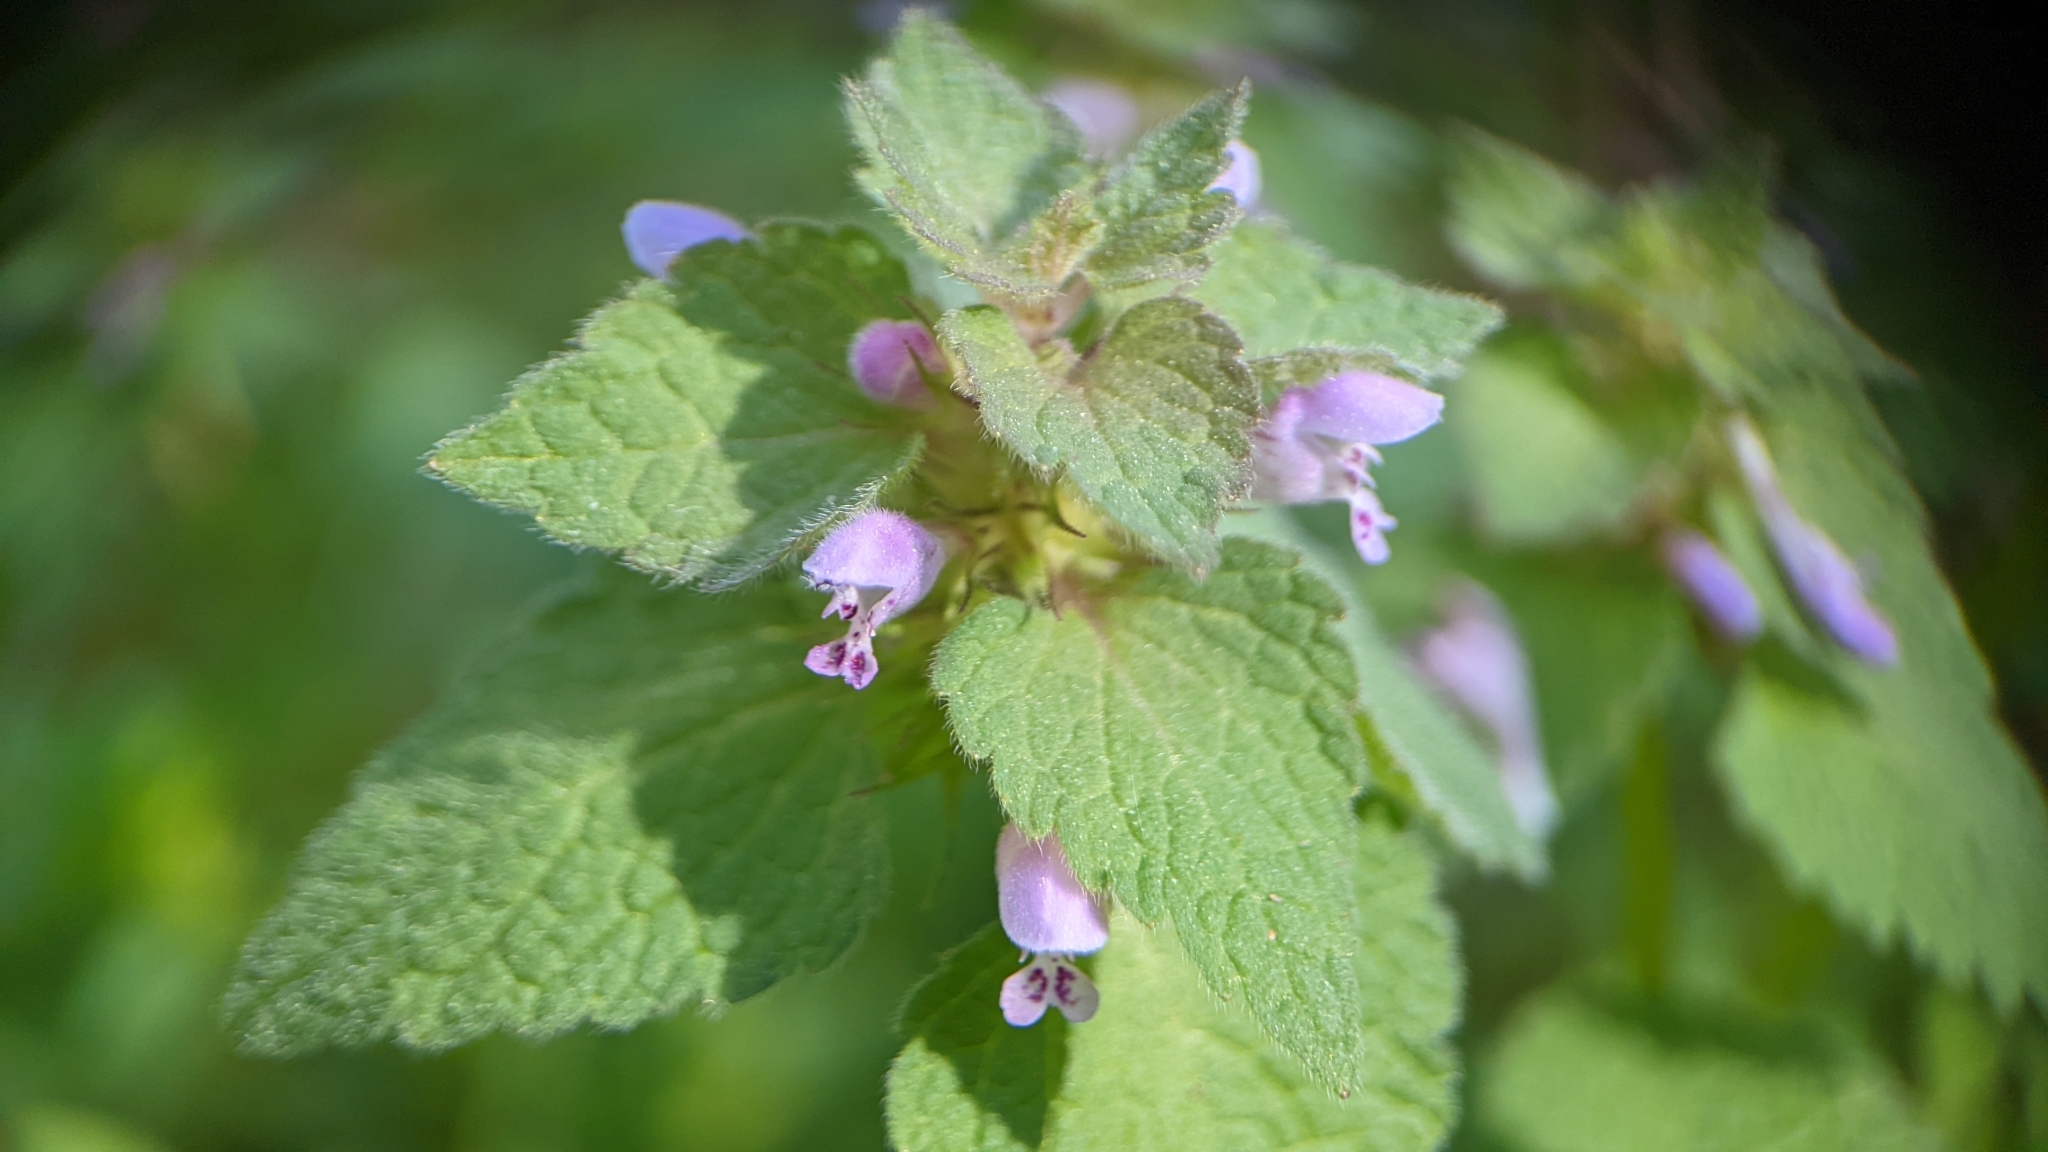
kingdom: Plantae
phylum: Tracheophyta
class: Magnoliopsida
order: Lamiales
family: Lamiaceae
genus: Lamium
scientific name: Lamium purpureum
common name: Red dead-nettle
